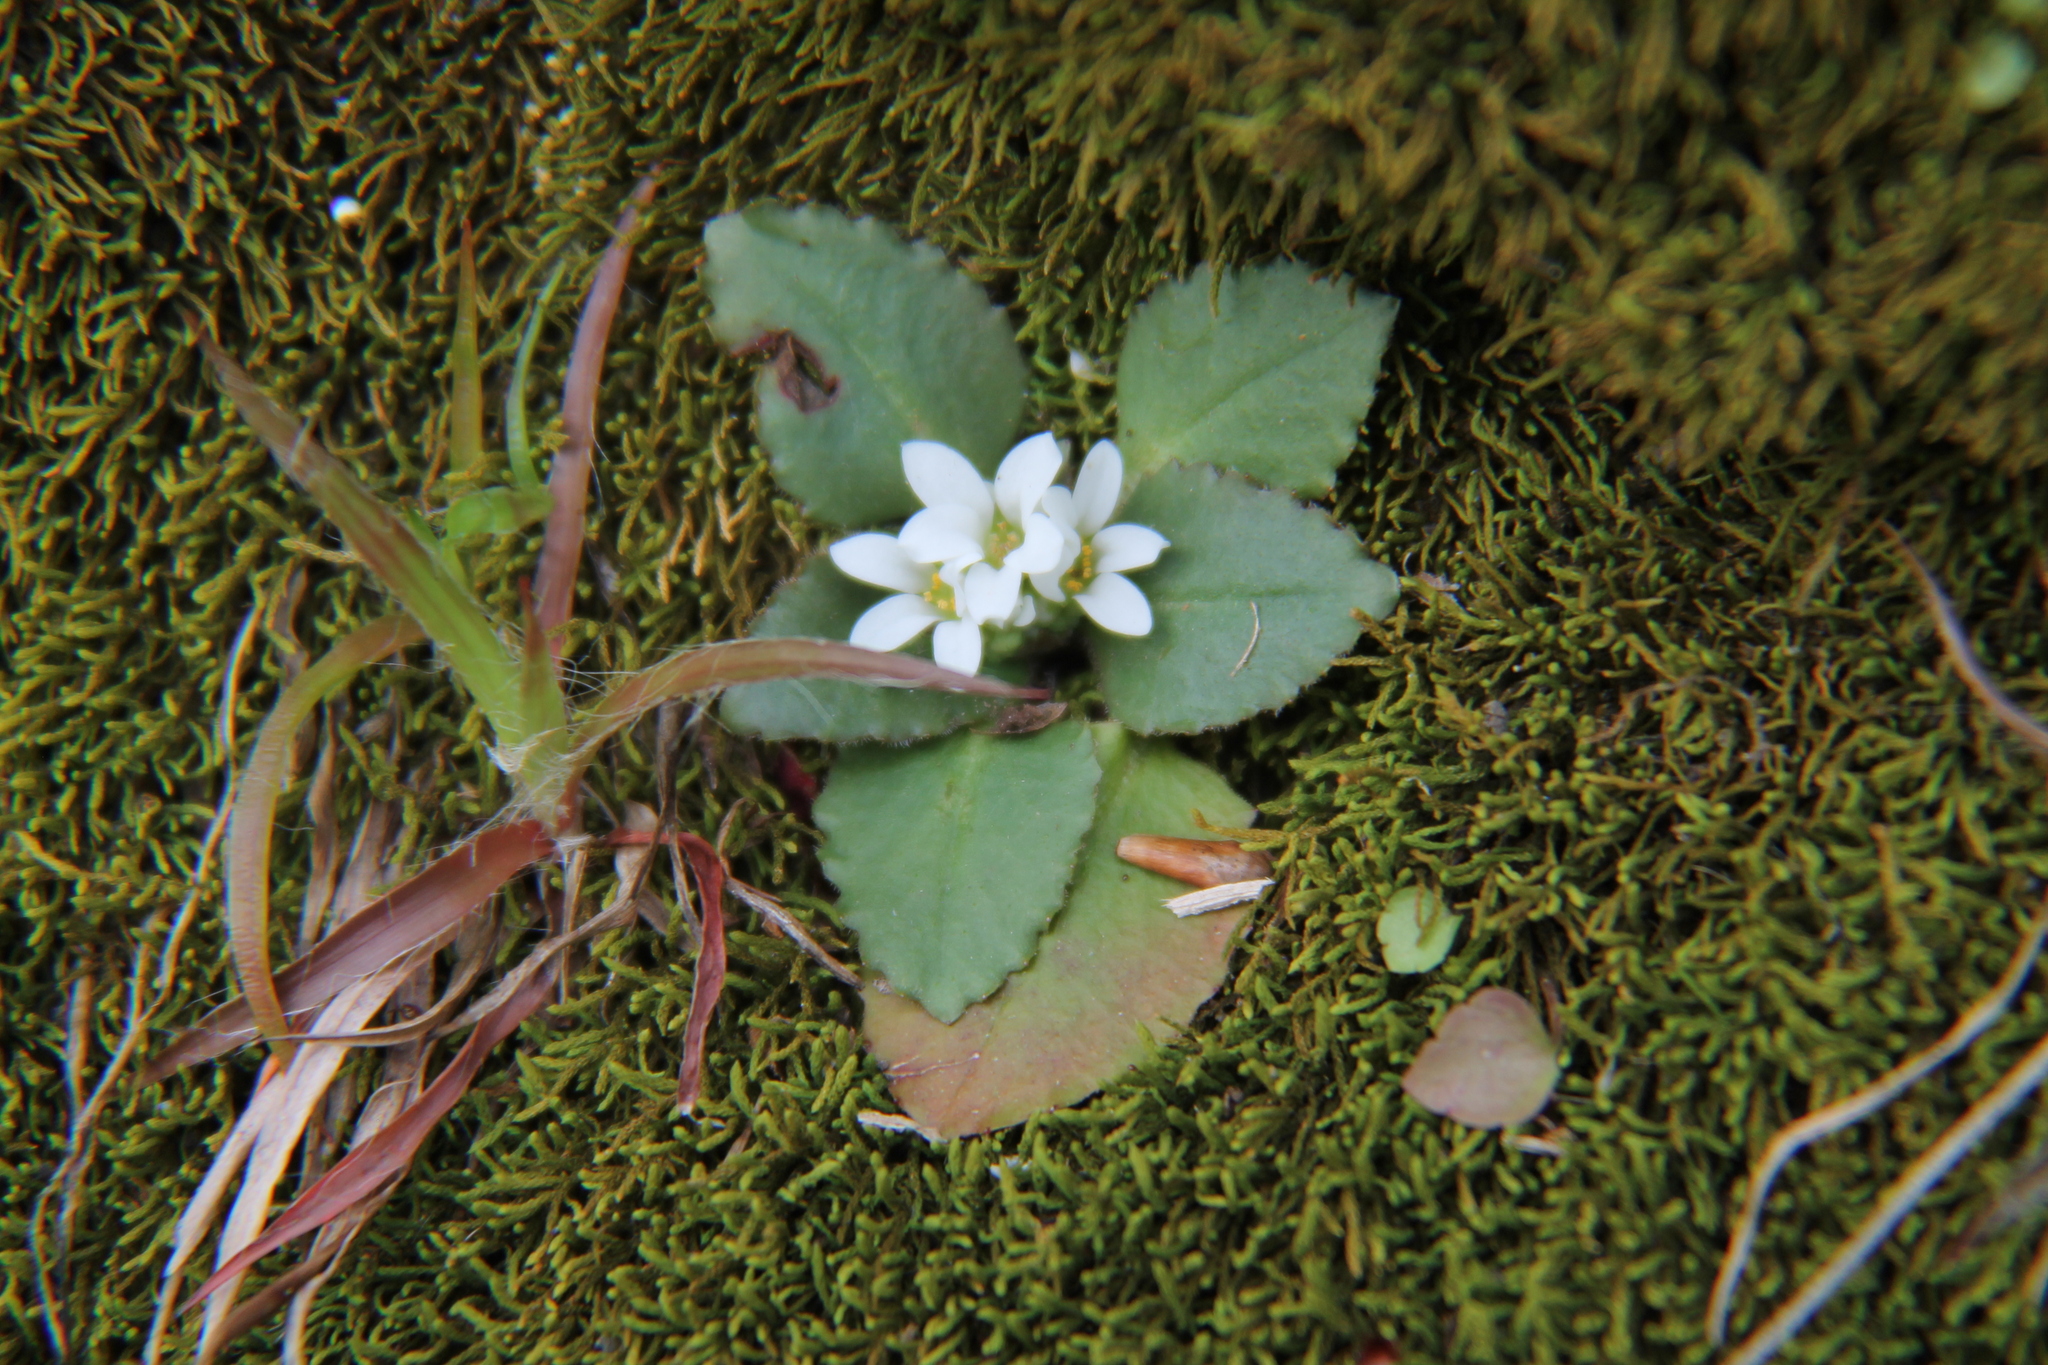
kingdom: Plantae
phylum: Tracheophyta
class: Magnoliopsida
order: Saxifragales
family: Saxifragaceae
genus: Micranthes
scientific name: Micranthes virginiensis
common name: Early saxifrage
